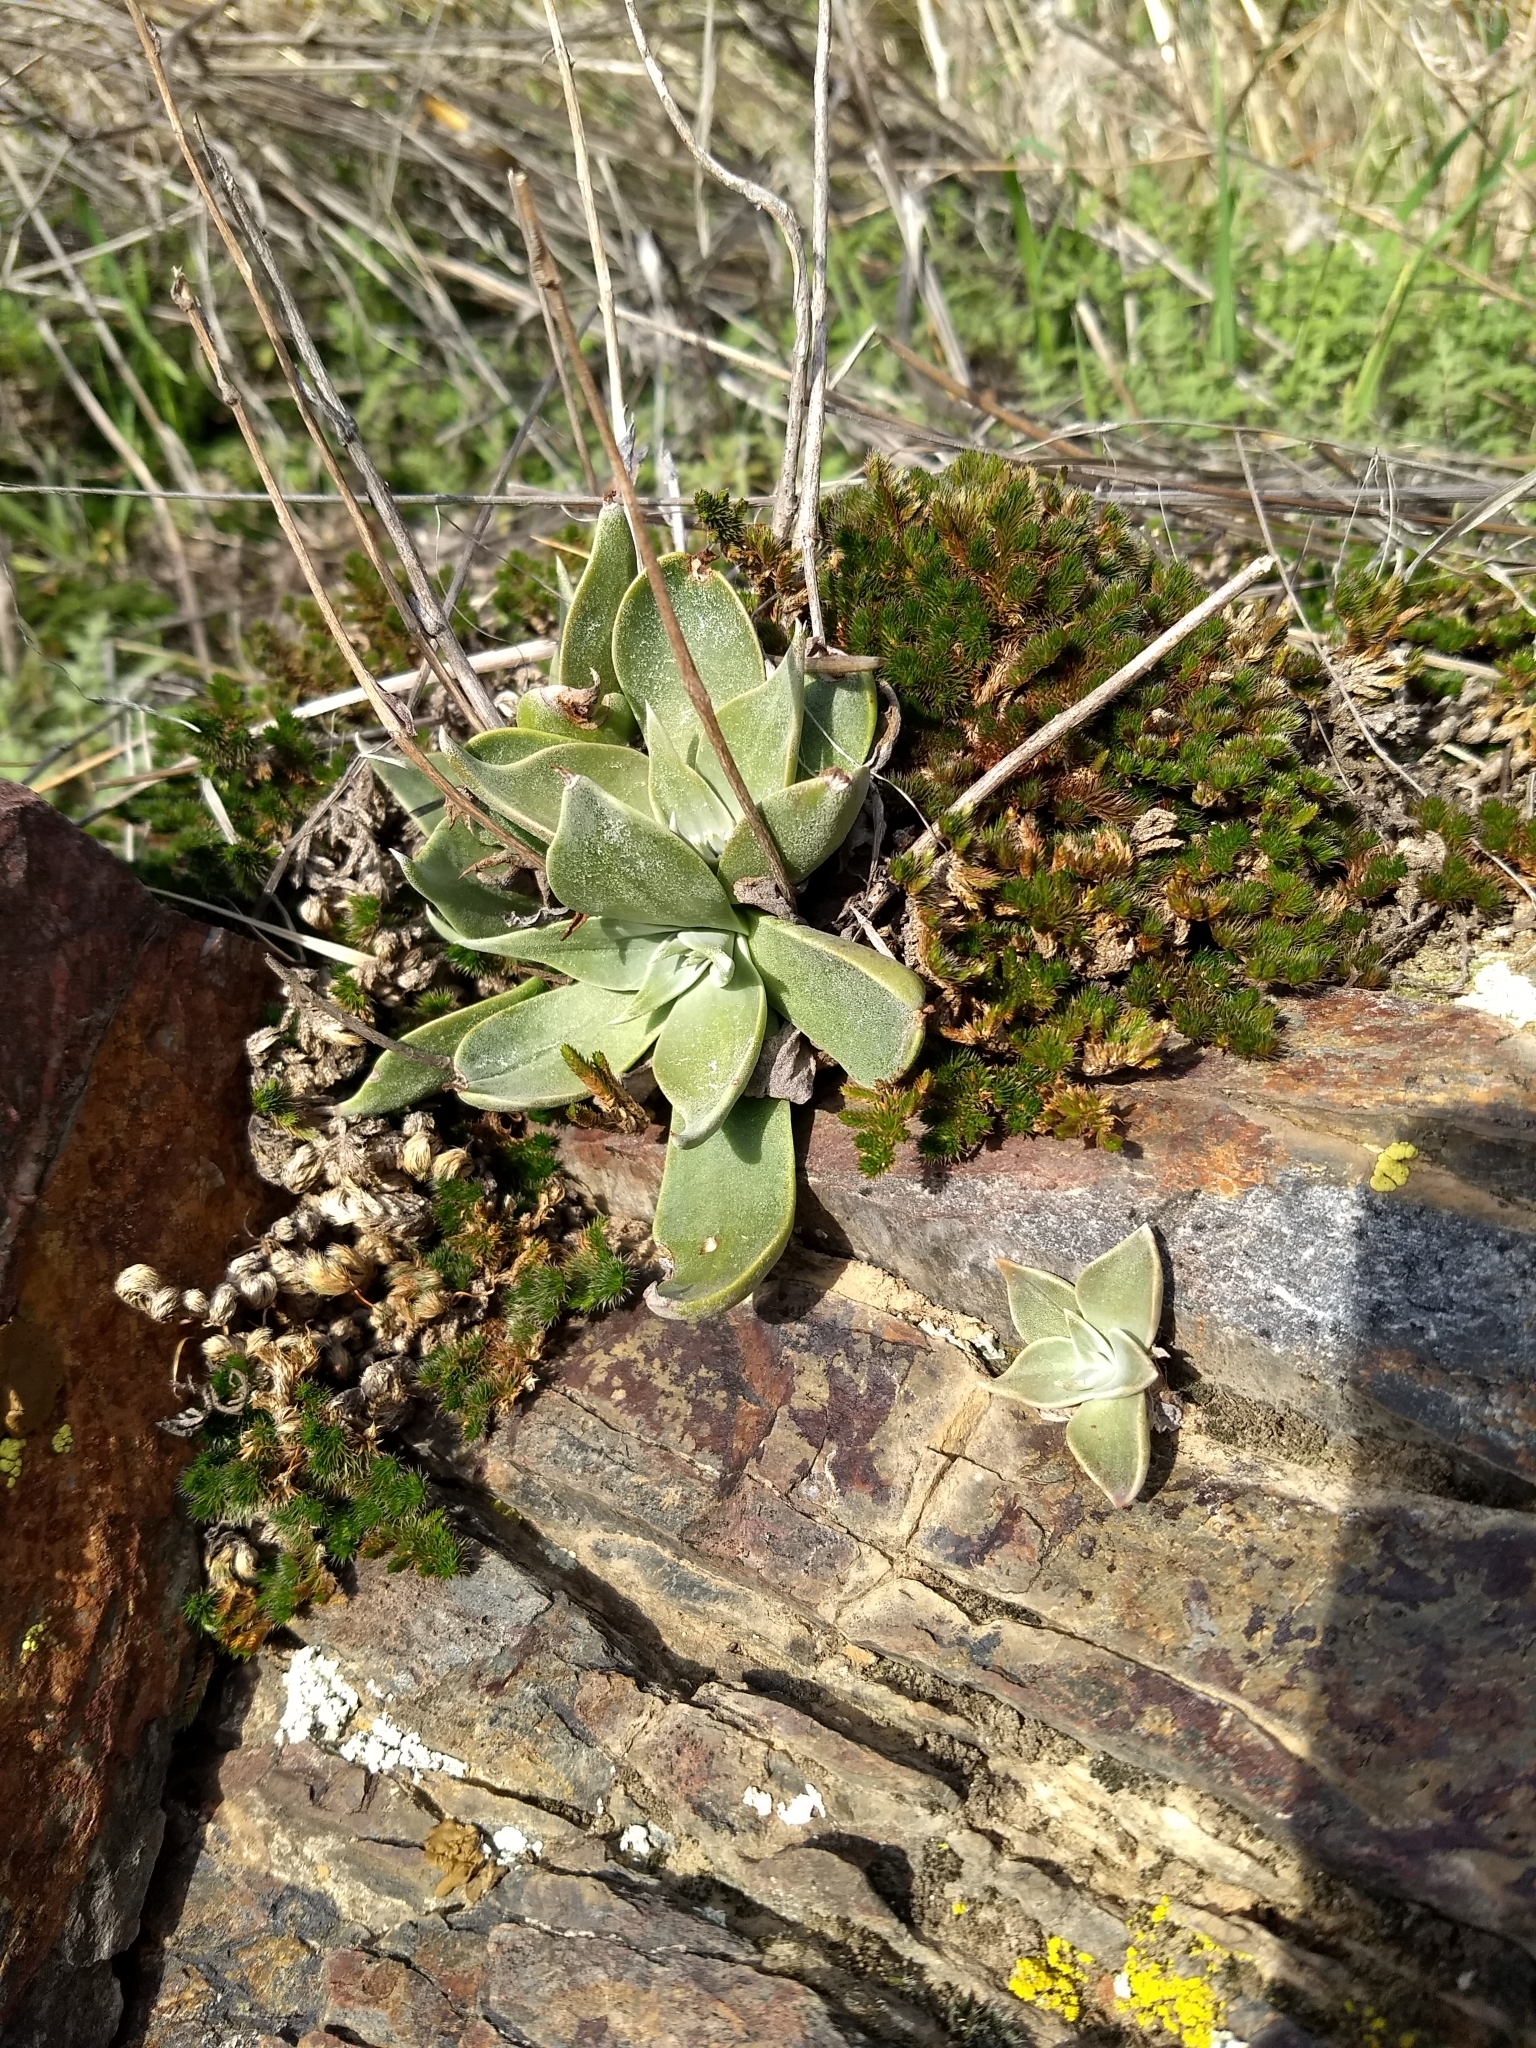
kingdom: Plantae
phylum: Tracheophyta
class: Magnoliopsida
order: Saxifragales
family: Crassulaceae
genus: Dudleya
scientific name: Dudleya cymosa
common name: Canyon dudleya
